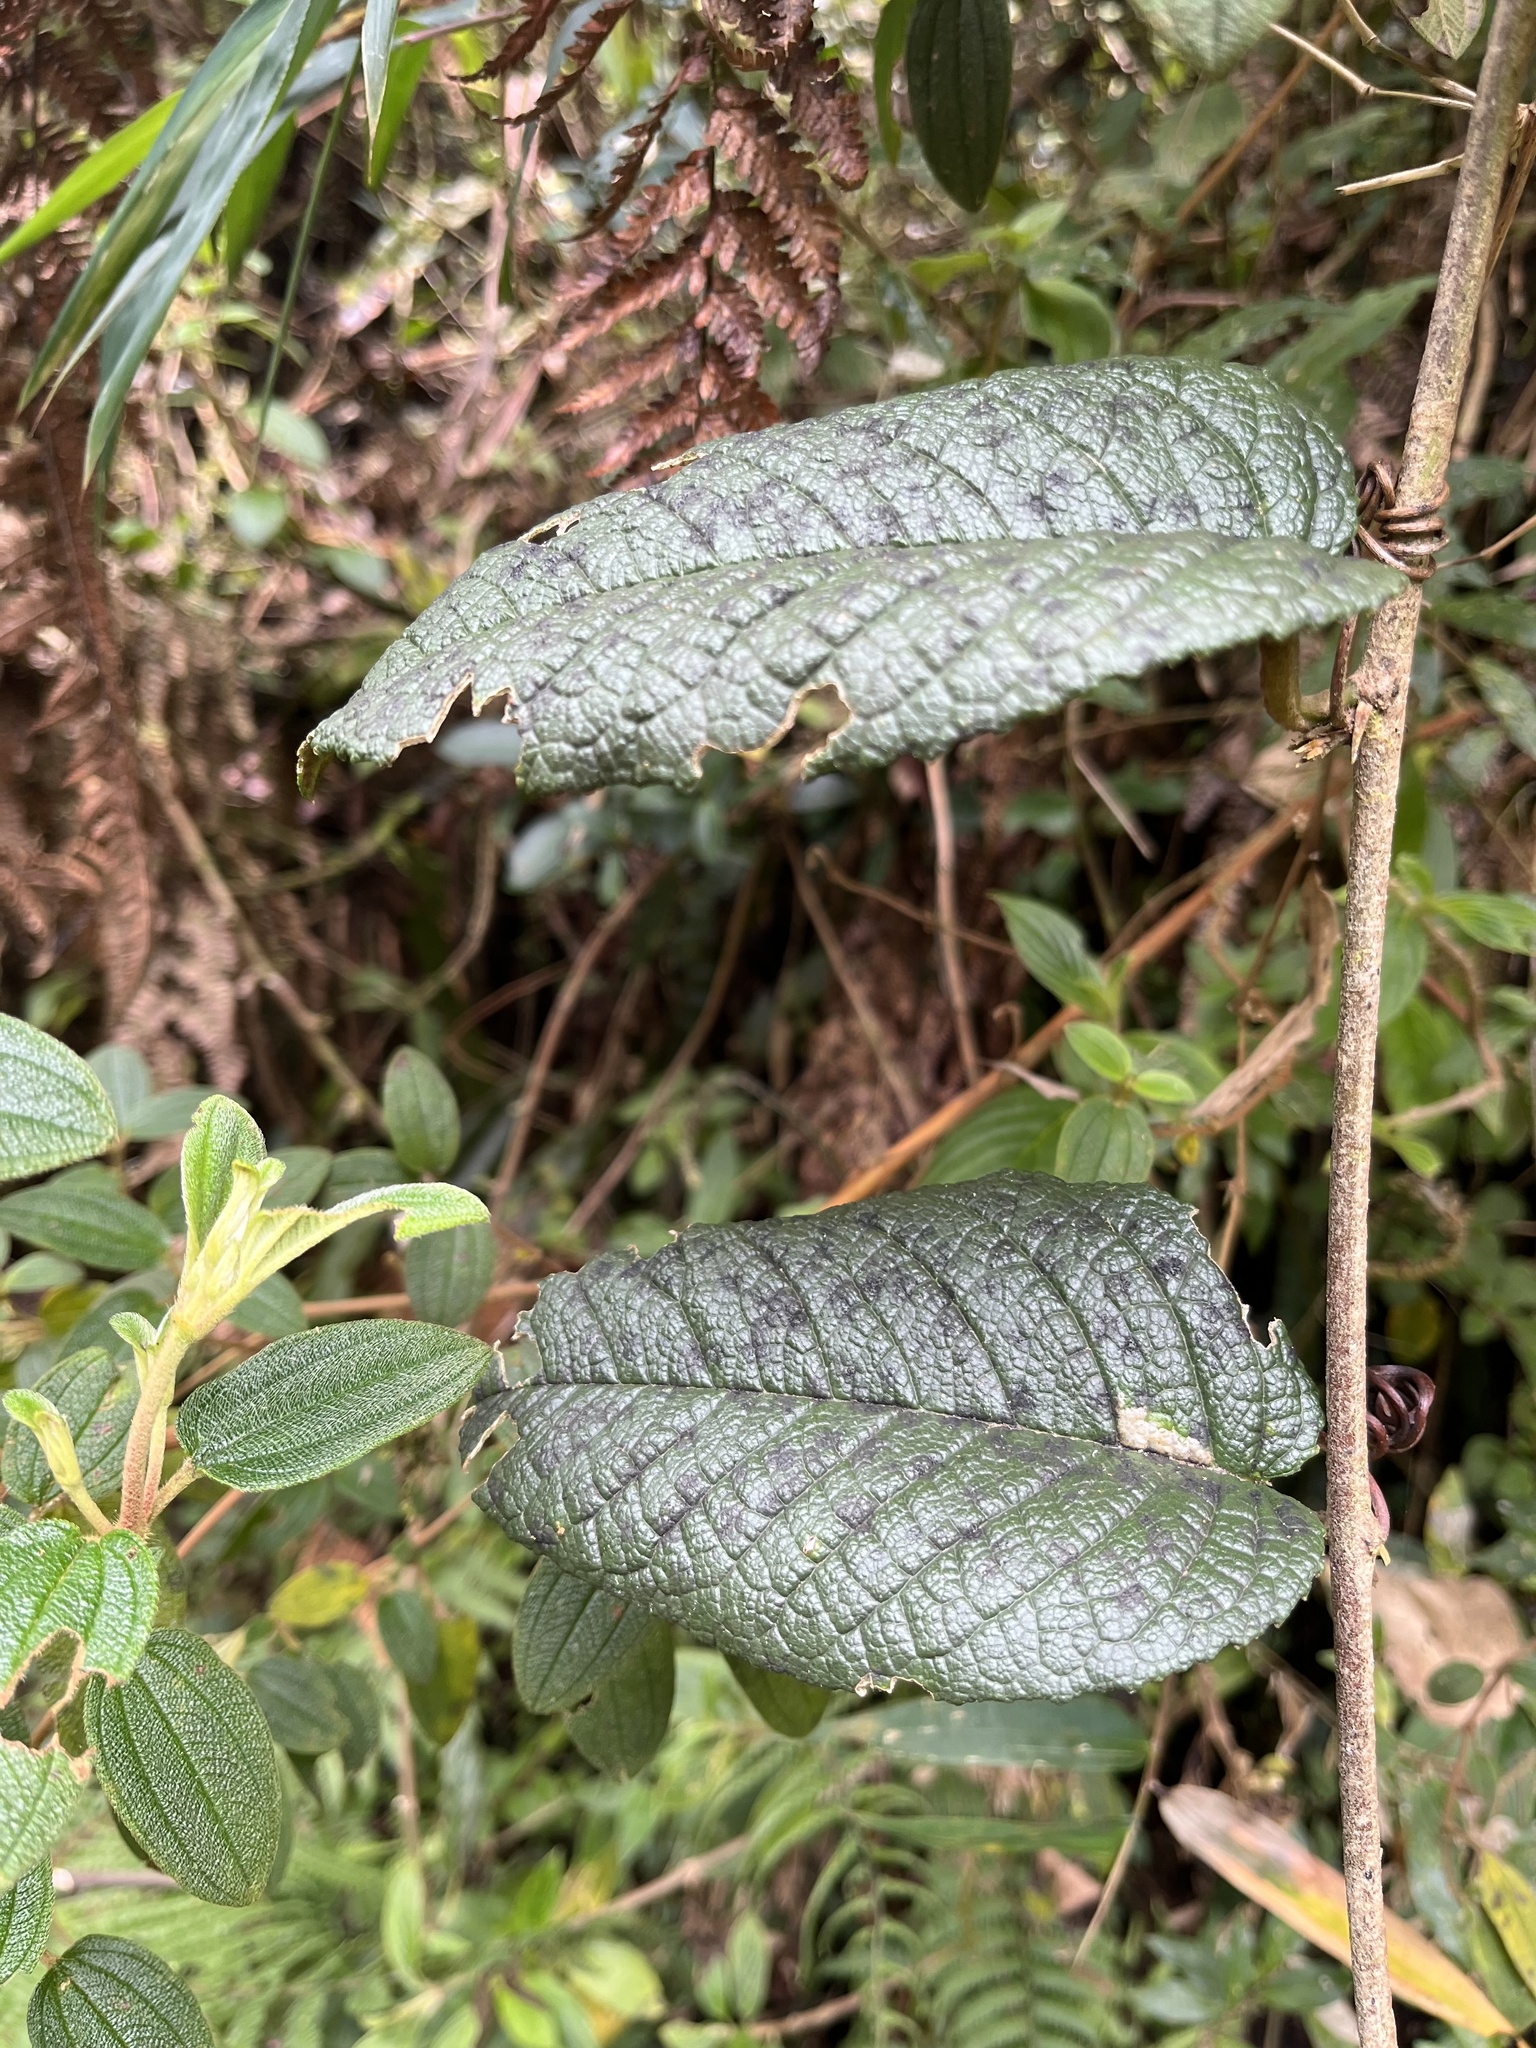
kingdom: Plantae
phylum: Tracheophyta
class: Magnoliopsida
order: Malpighiales
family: Passifloraceae
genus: Passiflora
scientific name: Passiflora lanata
